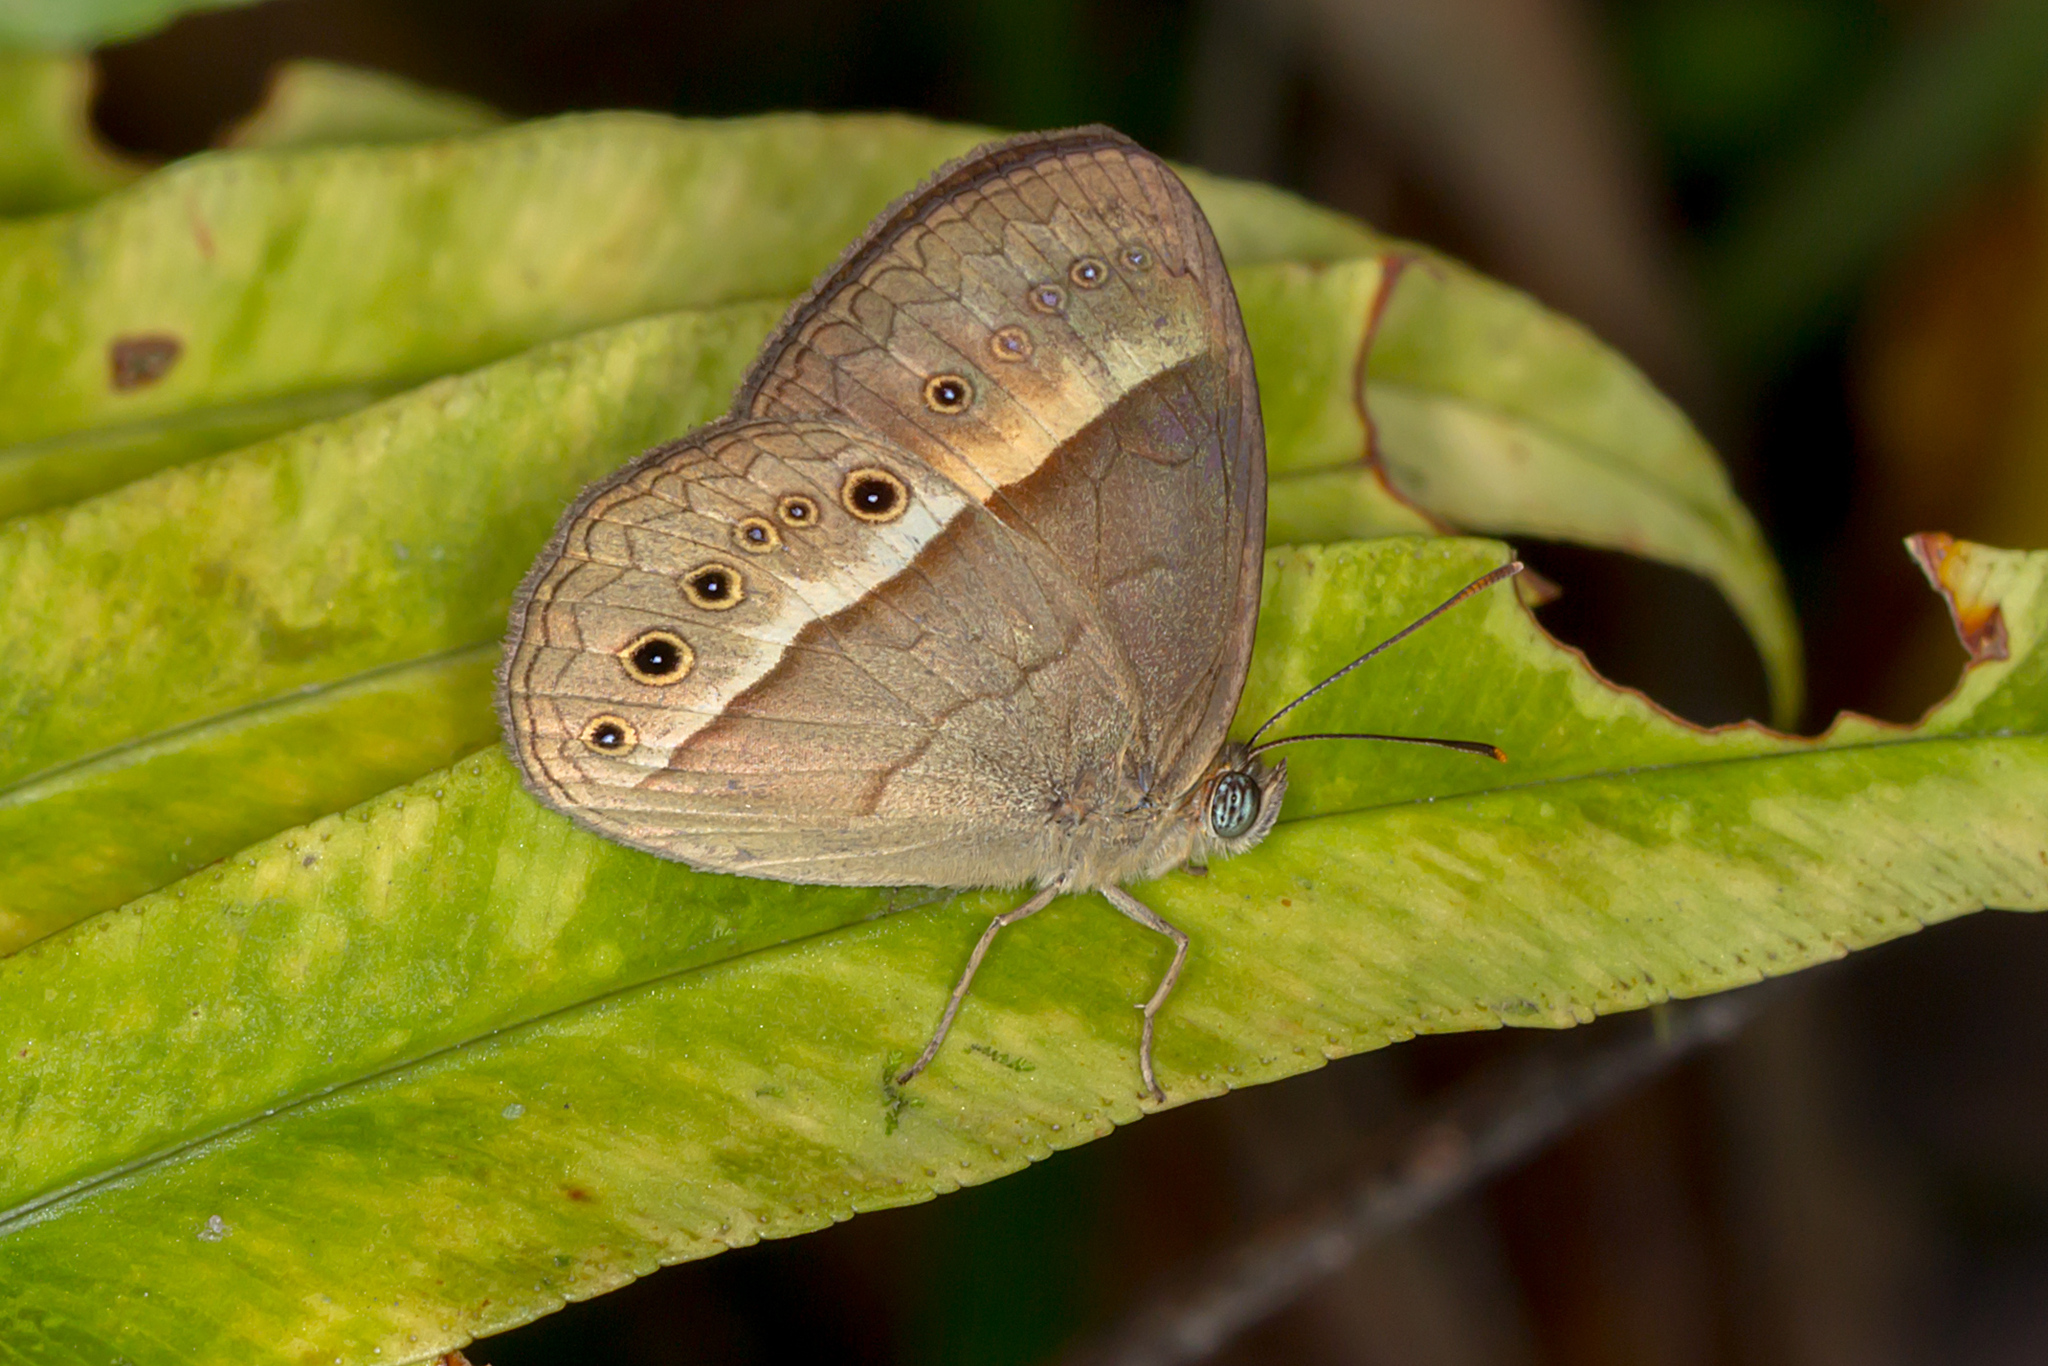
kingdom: Animalia
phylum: Arthropoda
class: Insecta
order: Lepidoptera
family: Nymphalidae
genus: Mycalesis
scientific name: Mycalesis terminus
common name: Orange bushbrown
